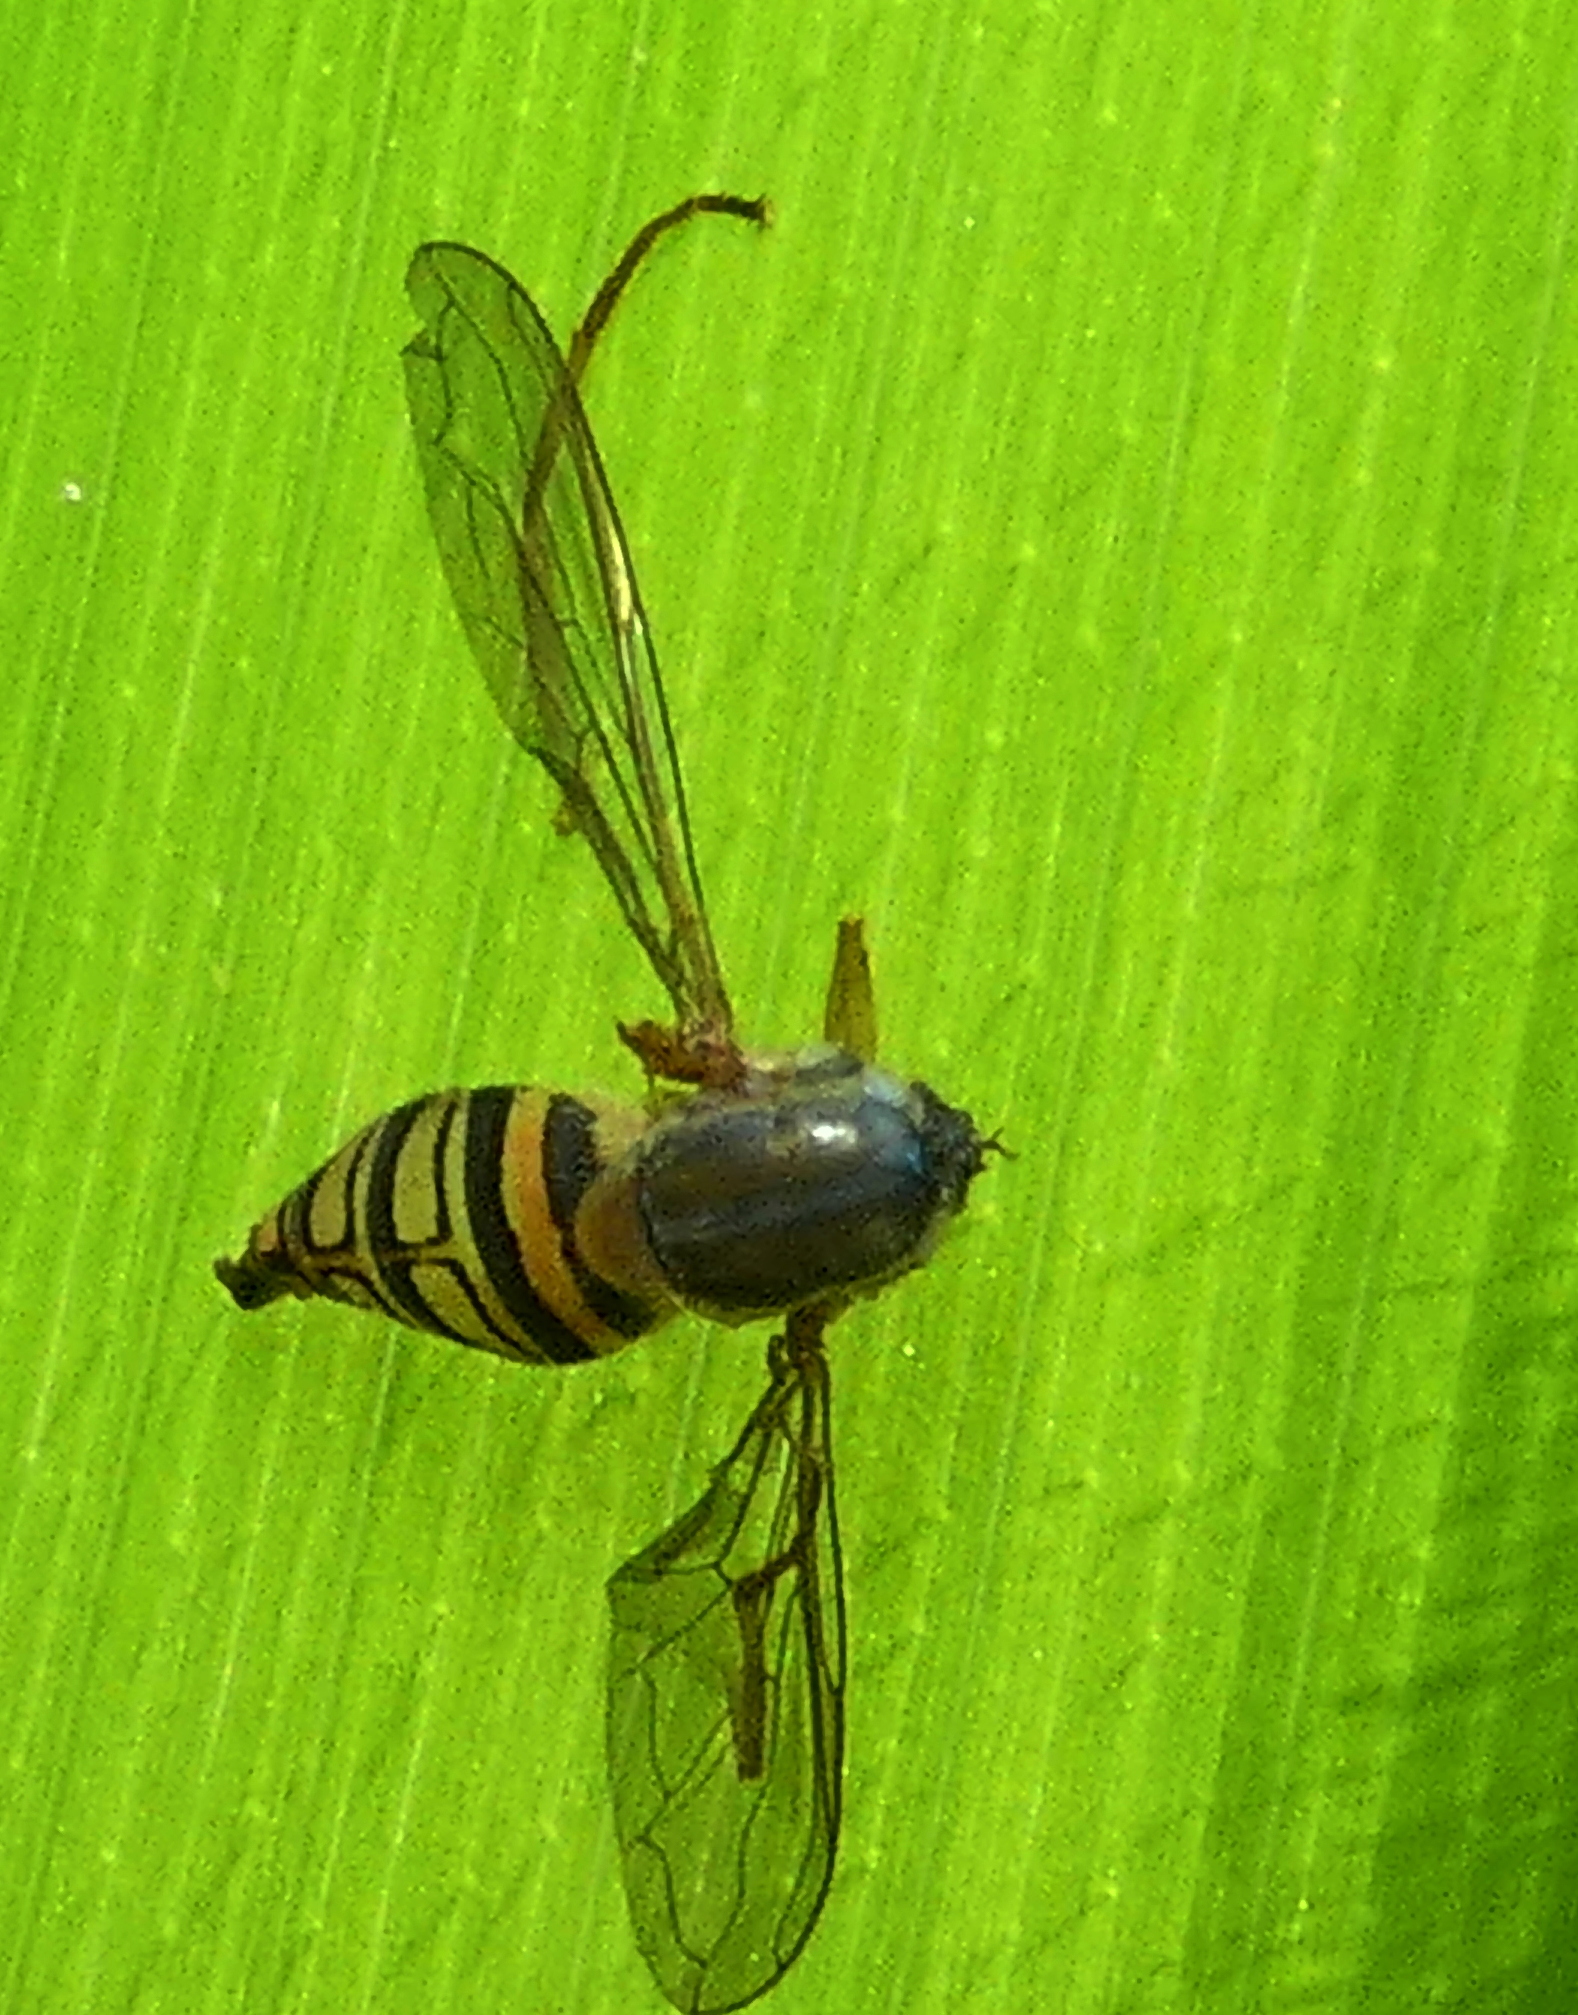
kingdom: Animalia
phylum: Arthropoda
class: Insecta
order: Diptera
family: Syrphidae
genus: Toxomerus
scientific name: Toxomerus politus
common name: Maize calligrapher
